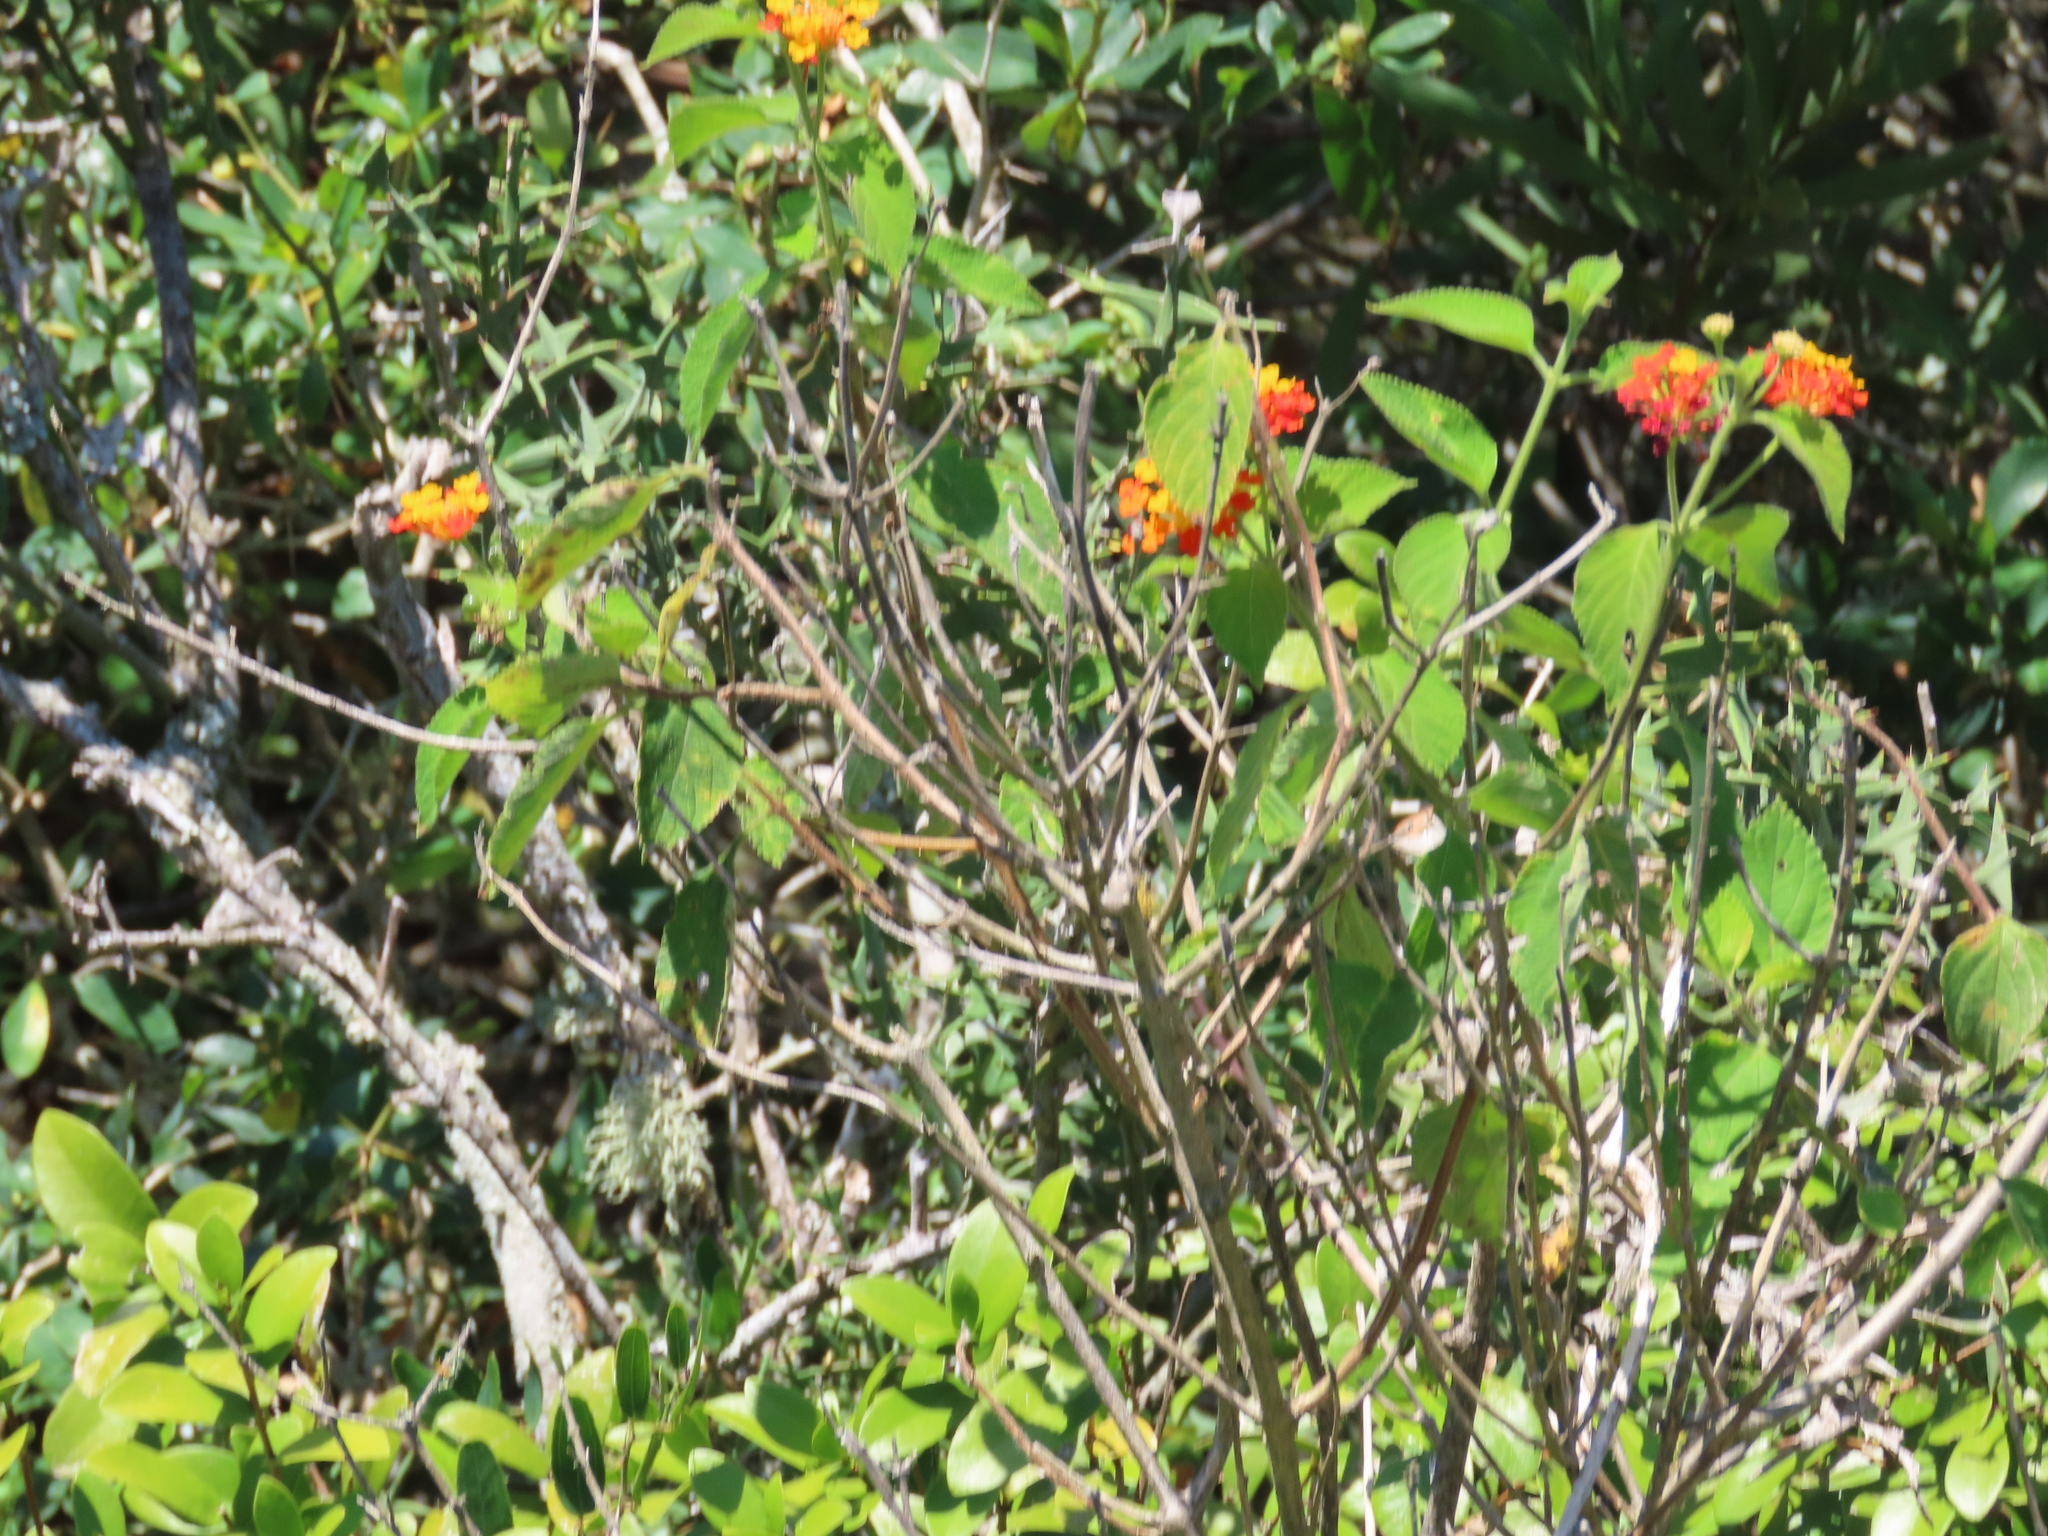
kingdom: Plantae
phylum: Tracheophyta
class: Magnoliopsida
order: Lamiales
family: Verbenaceae
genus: Lantana
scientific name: Lantana camara
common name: Lantana
